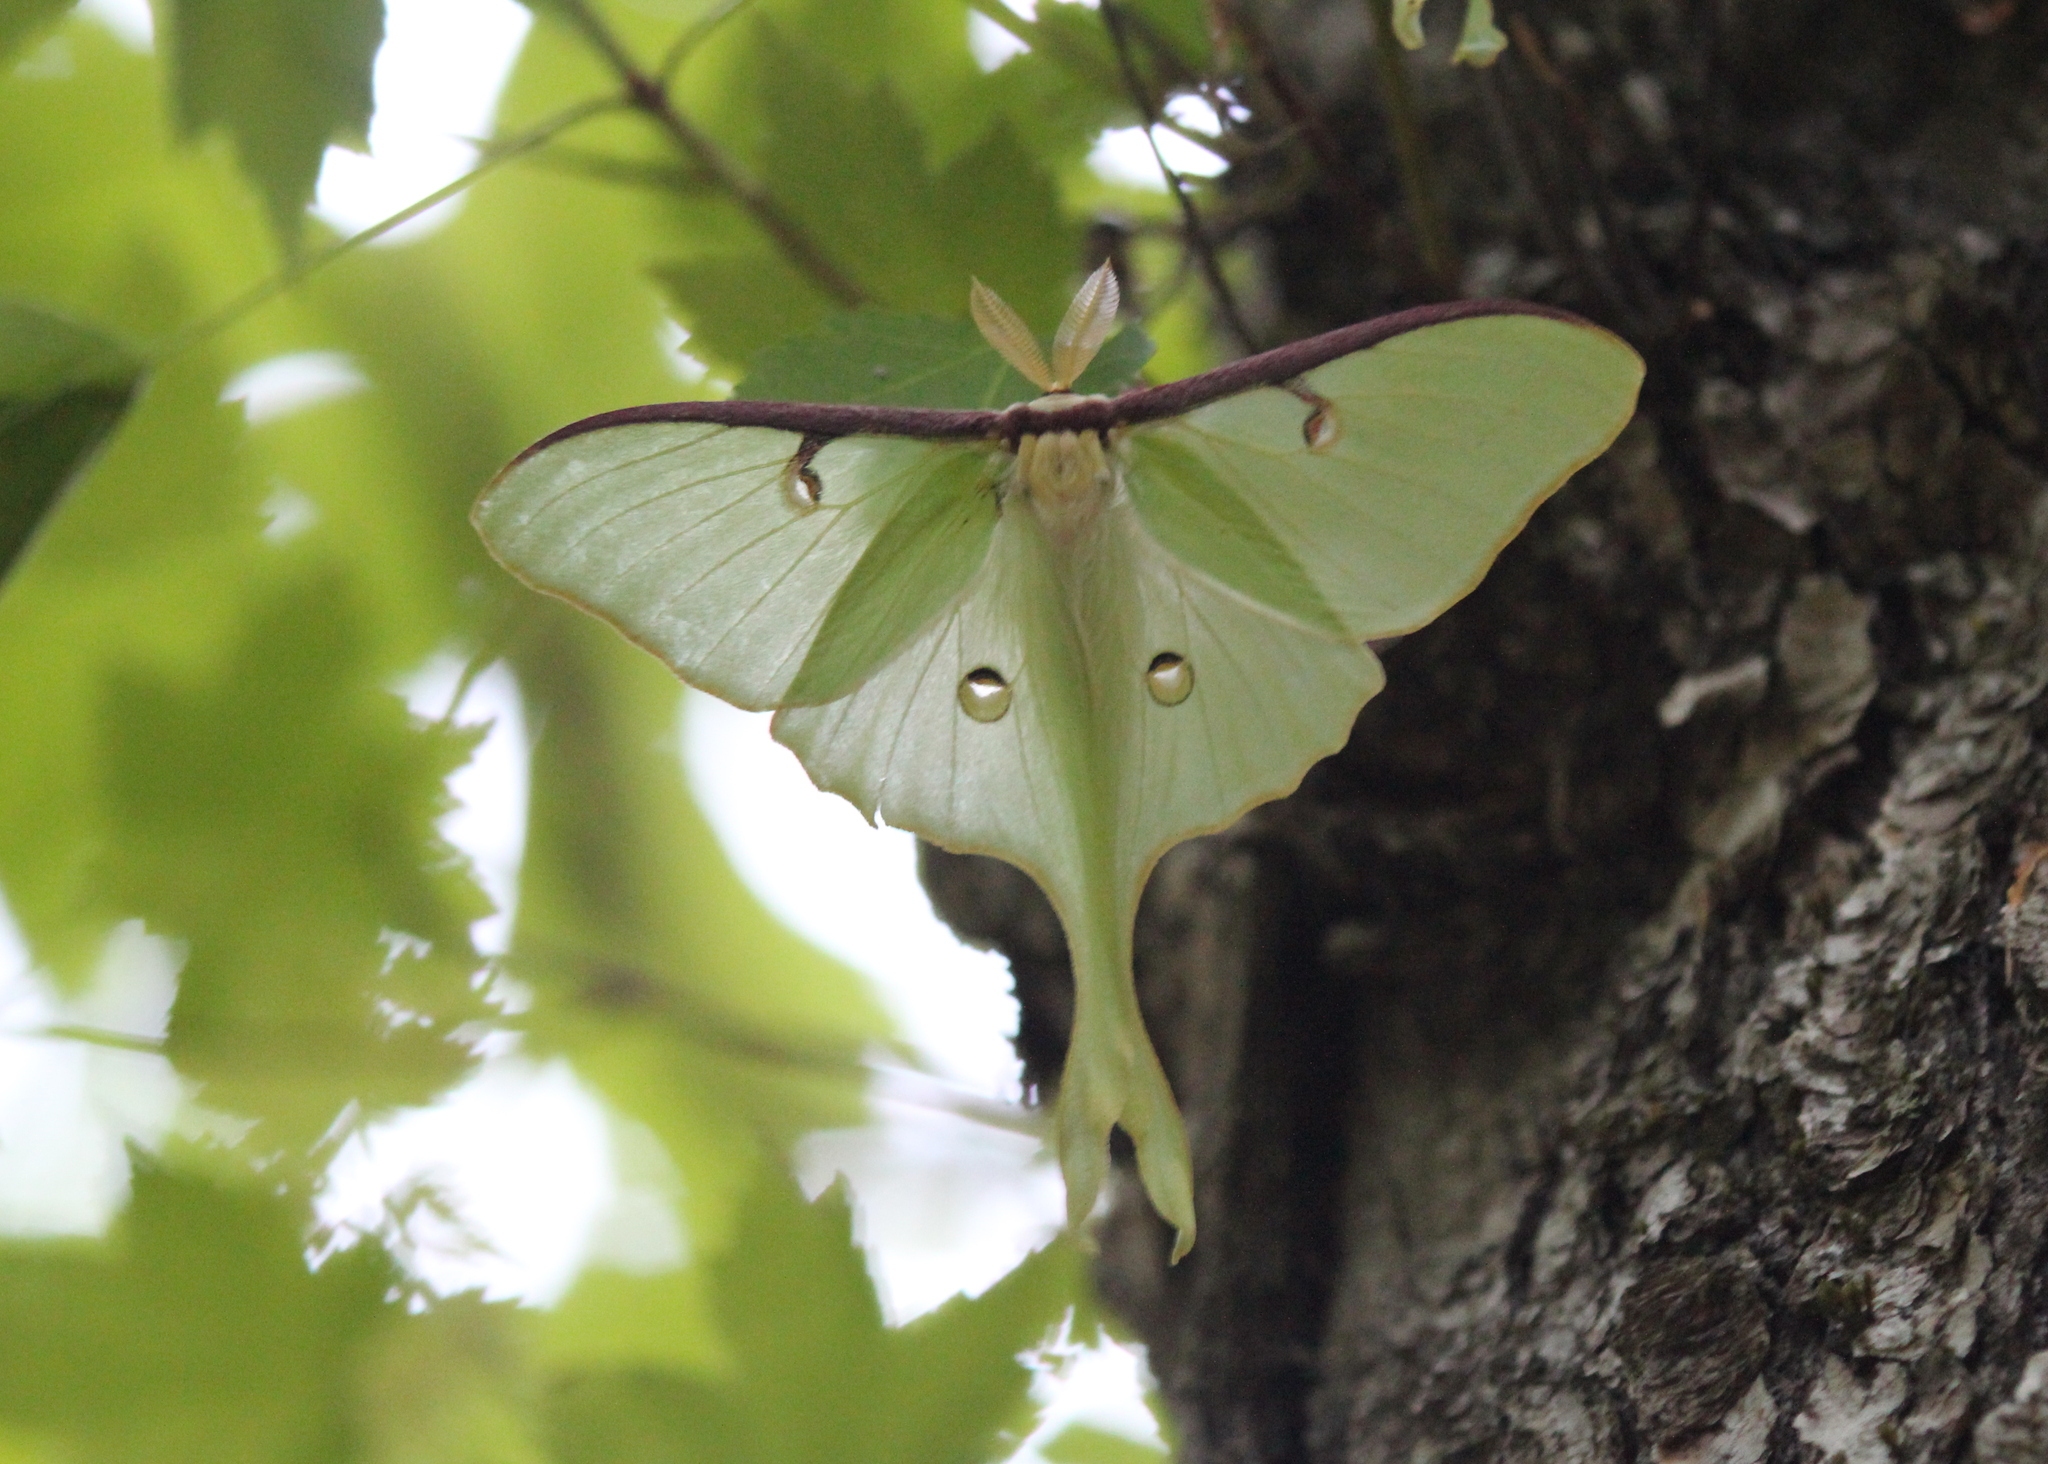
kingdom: Animalia
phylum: Arthropoda
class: Insecta
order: Lepidoptera
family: Saturniidae
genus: Actias
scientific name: Actias luna
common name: Luna moth
